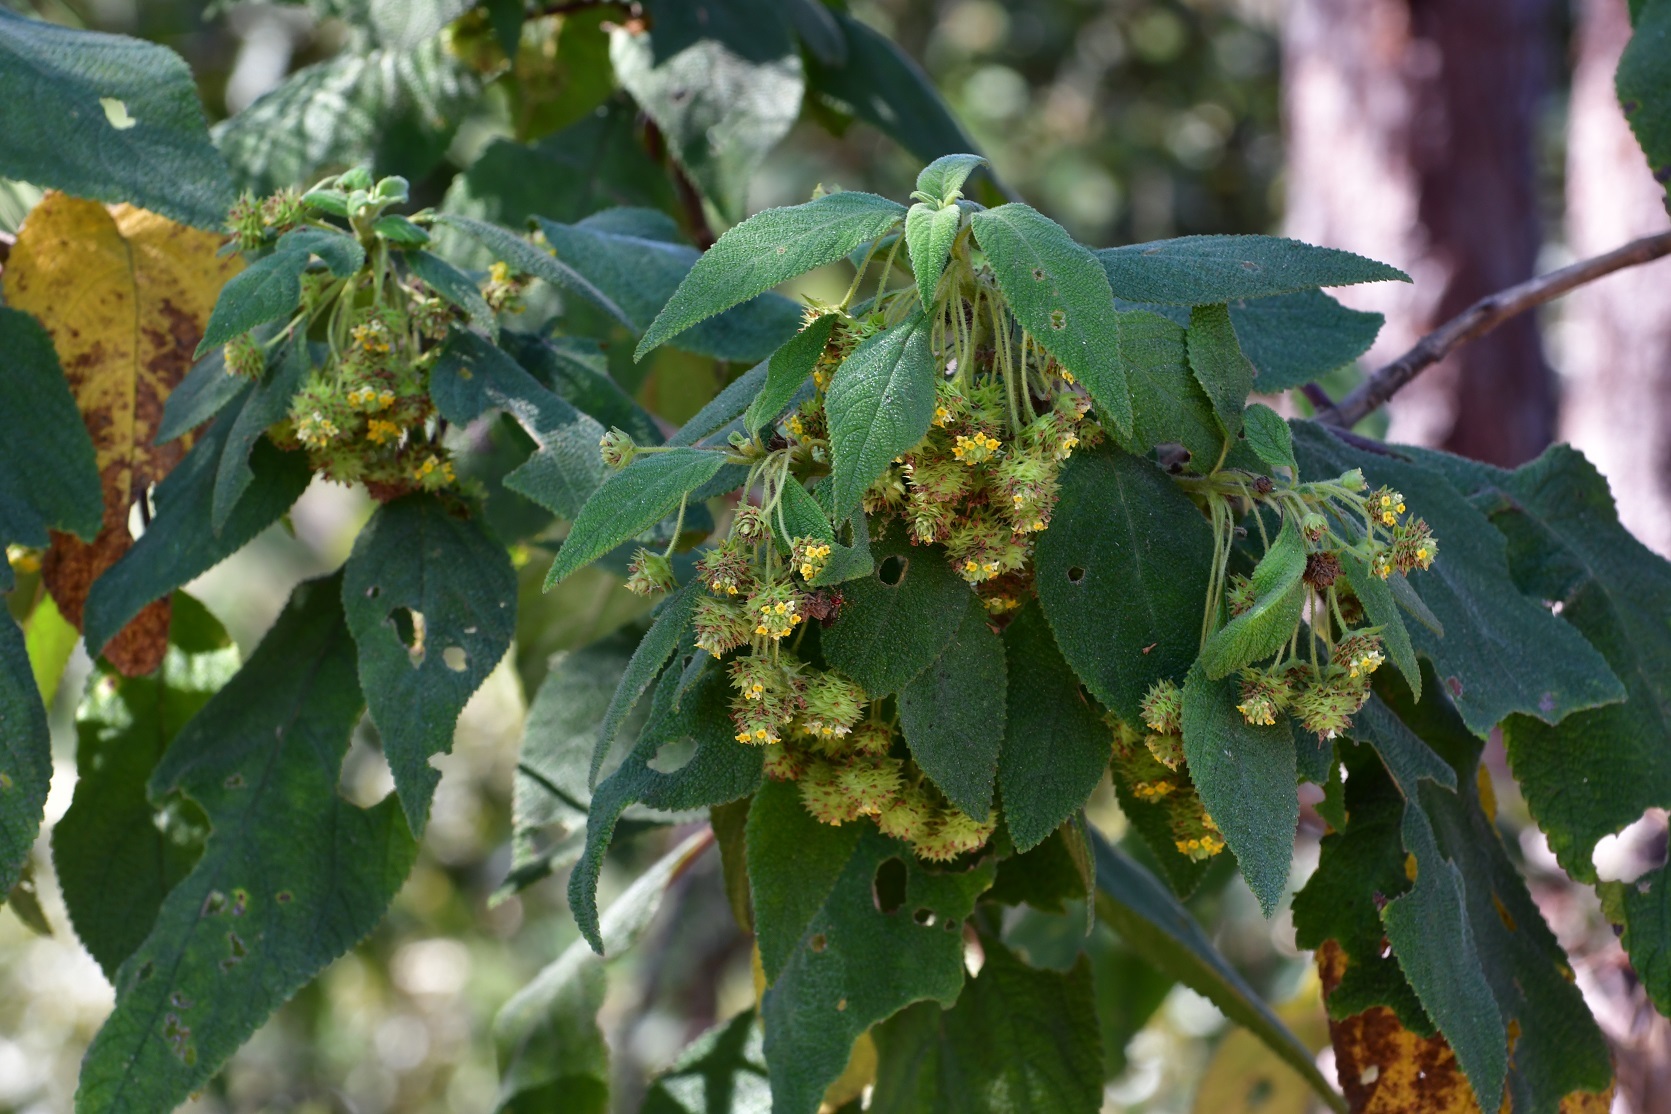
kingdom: Plantae
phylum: Tracheophyta
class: Magnoliopsida
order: Lamiales
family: Verbenaceae
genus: Lippia
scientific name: Lippia chiapasensis
